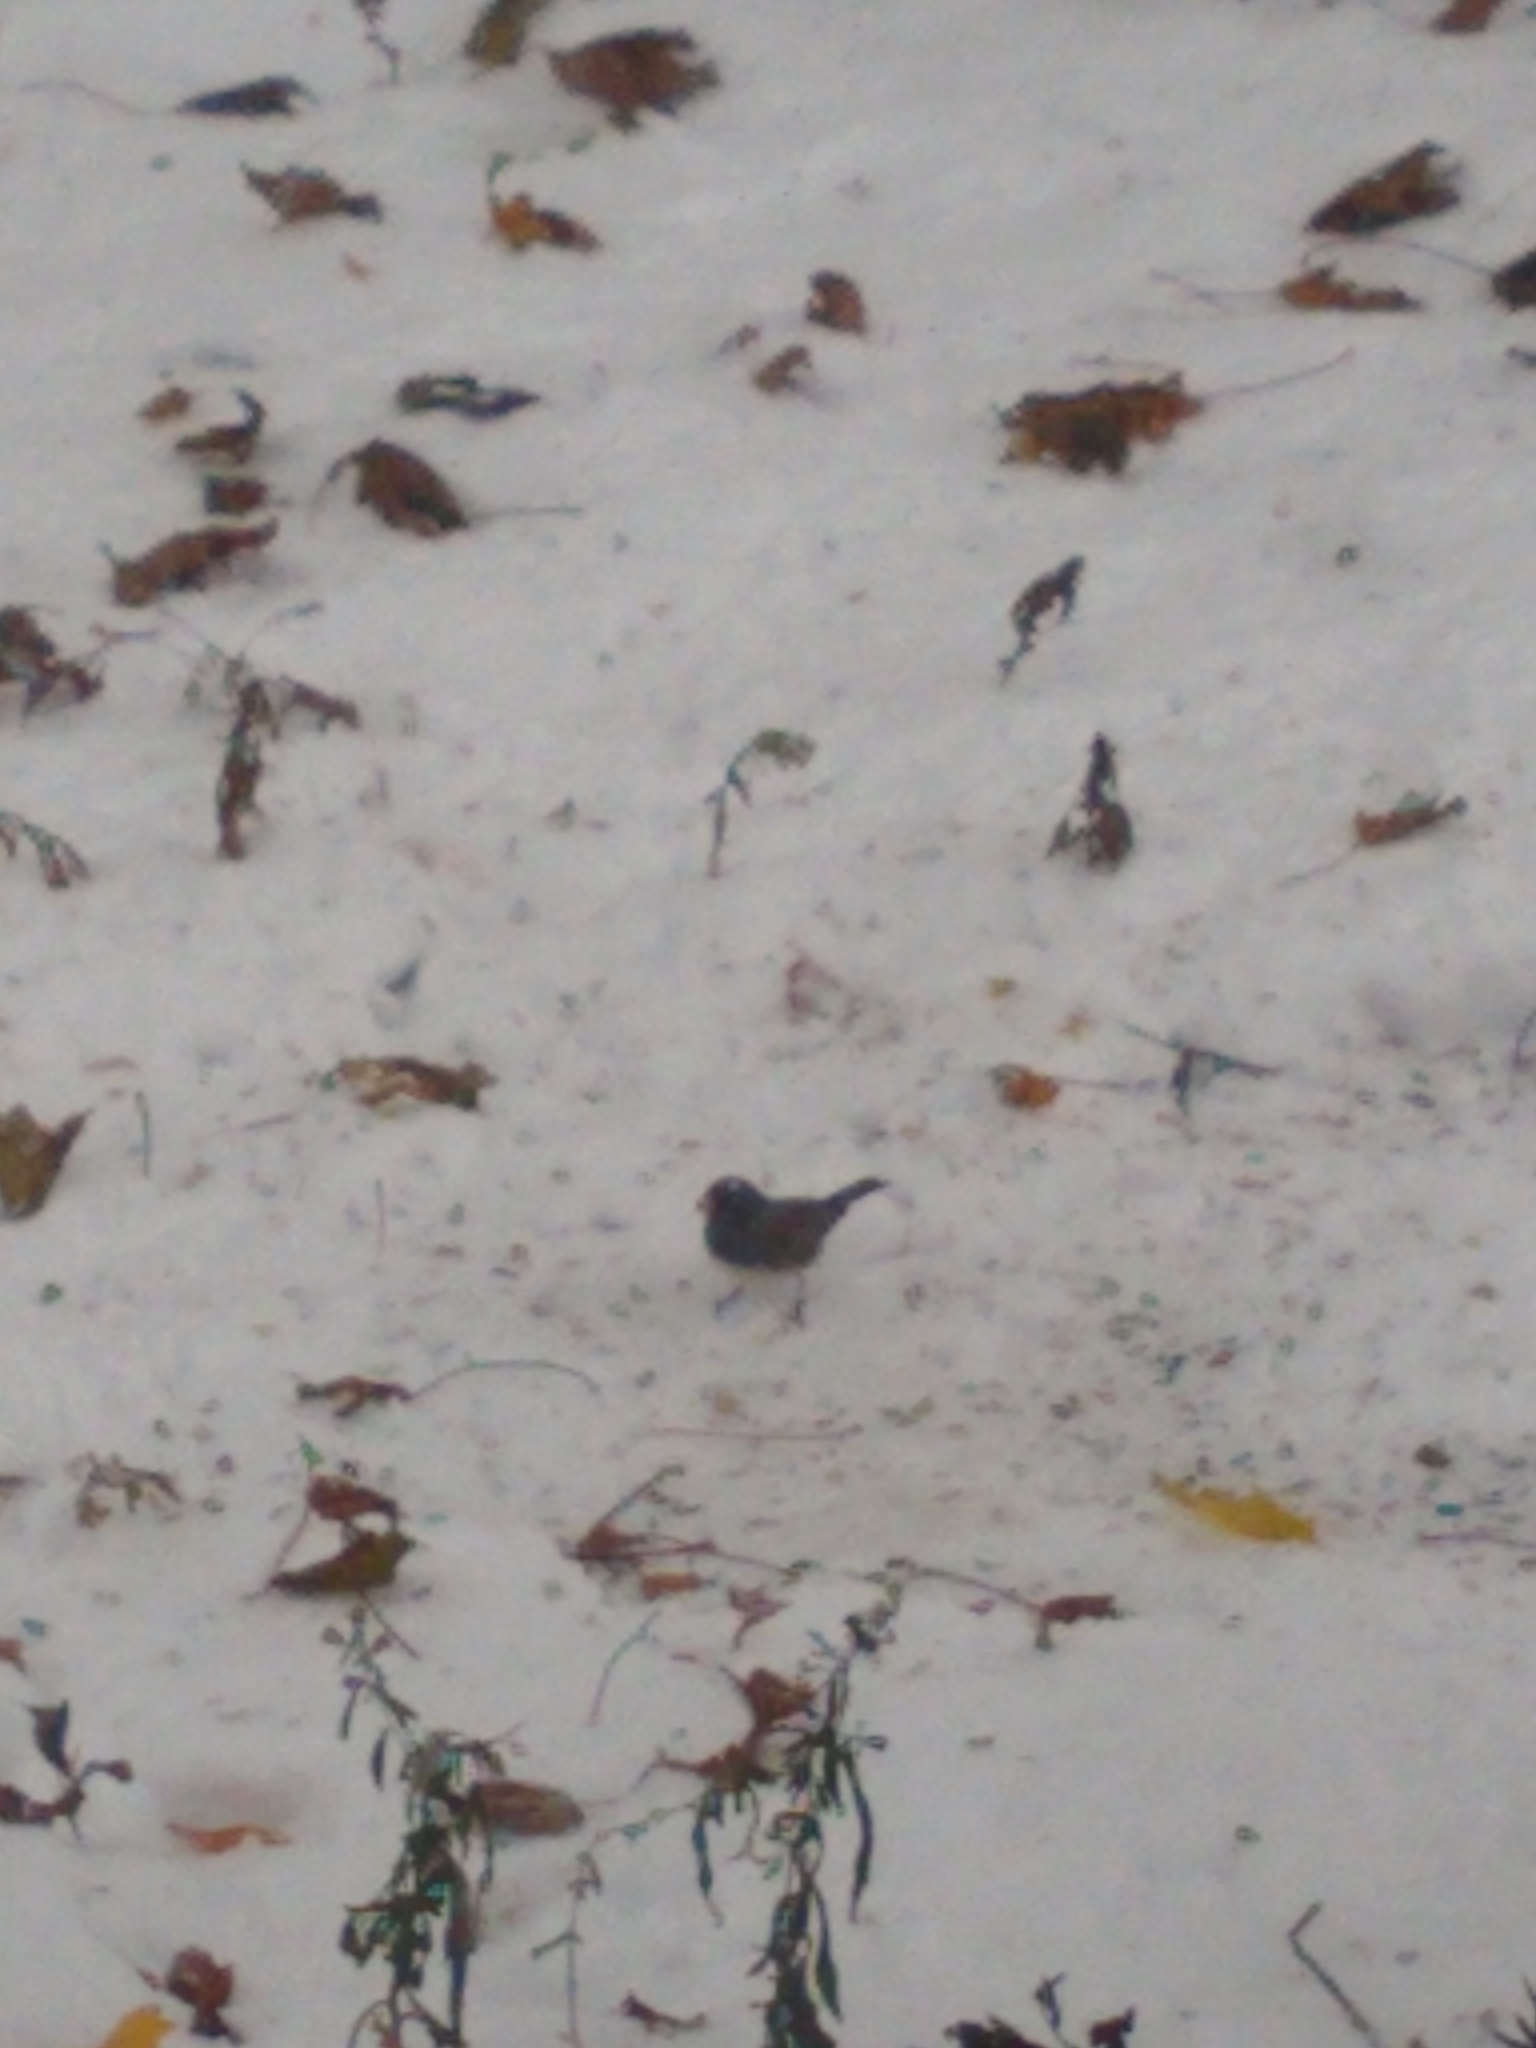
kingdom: Animalia
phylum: Chordata
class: Aves
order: Passeriformes
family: Passerellidae
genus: Junco
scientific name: Junco hyemalis
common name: Dark-eyed junco
